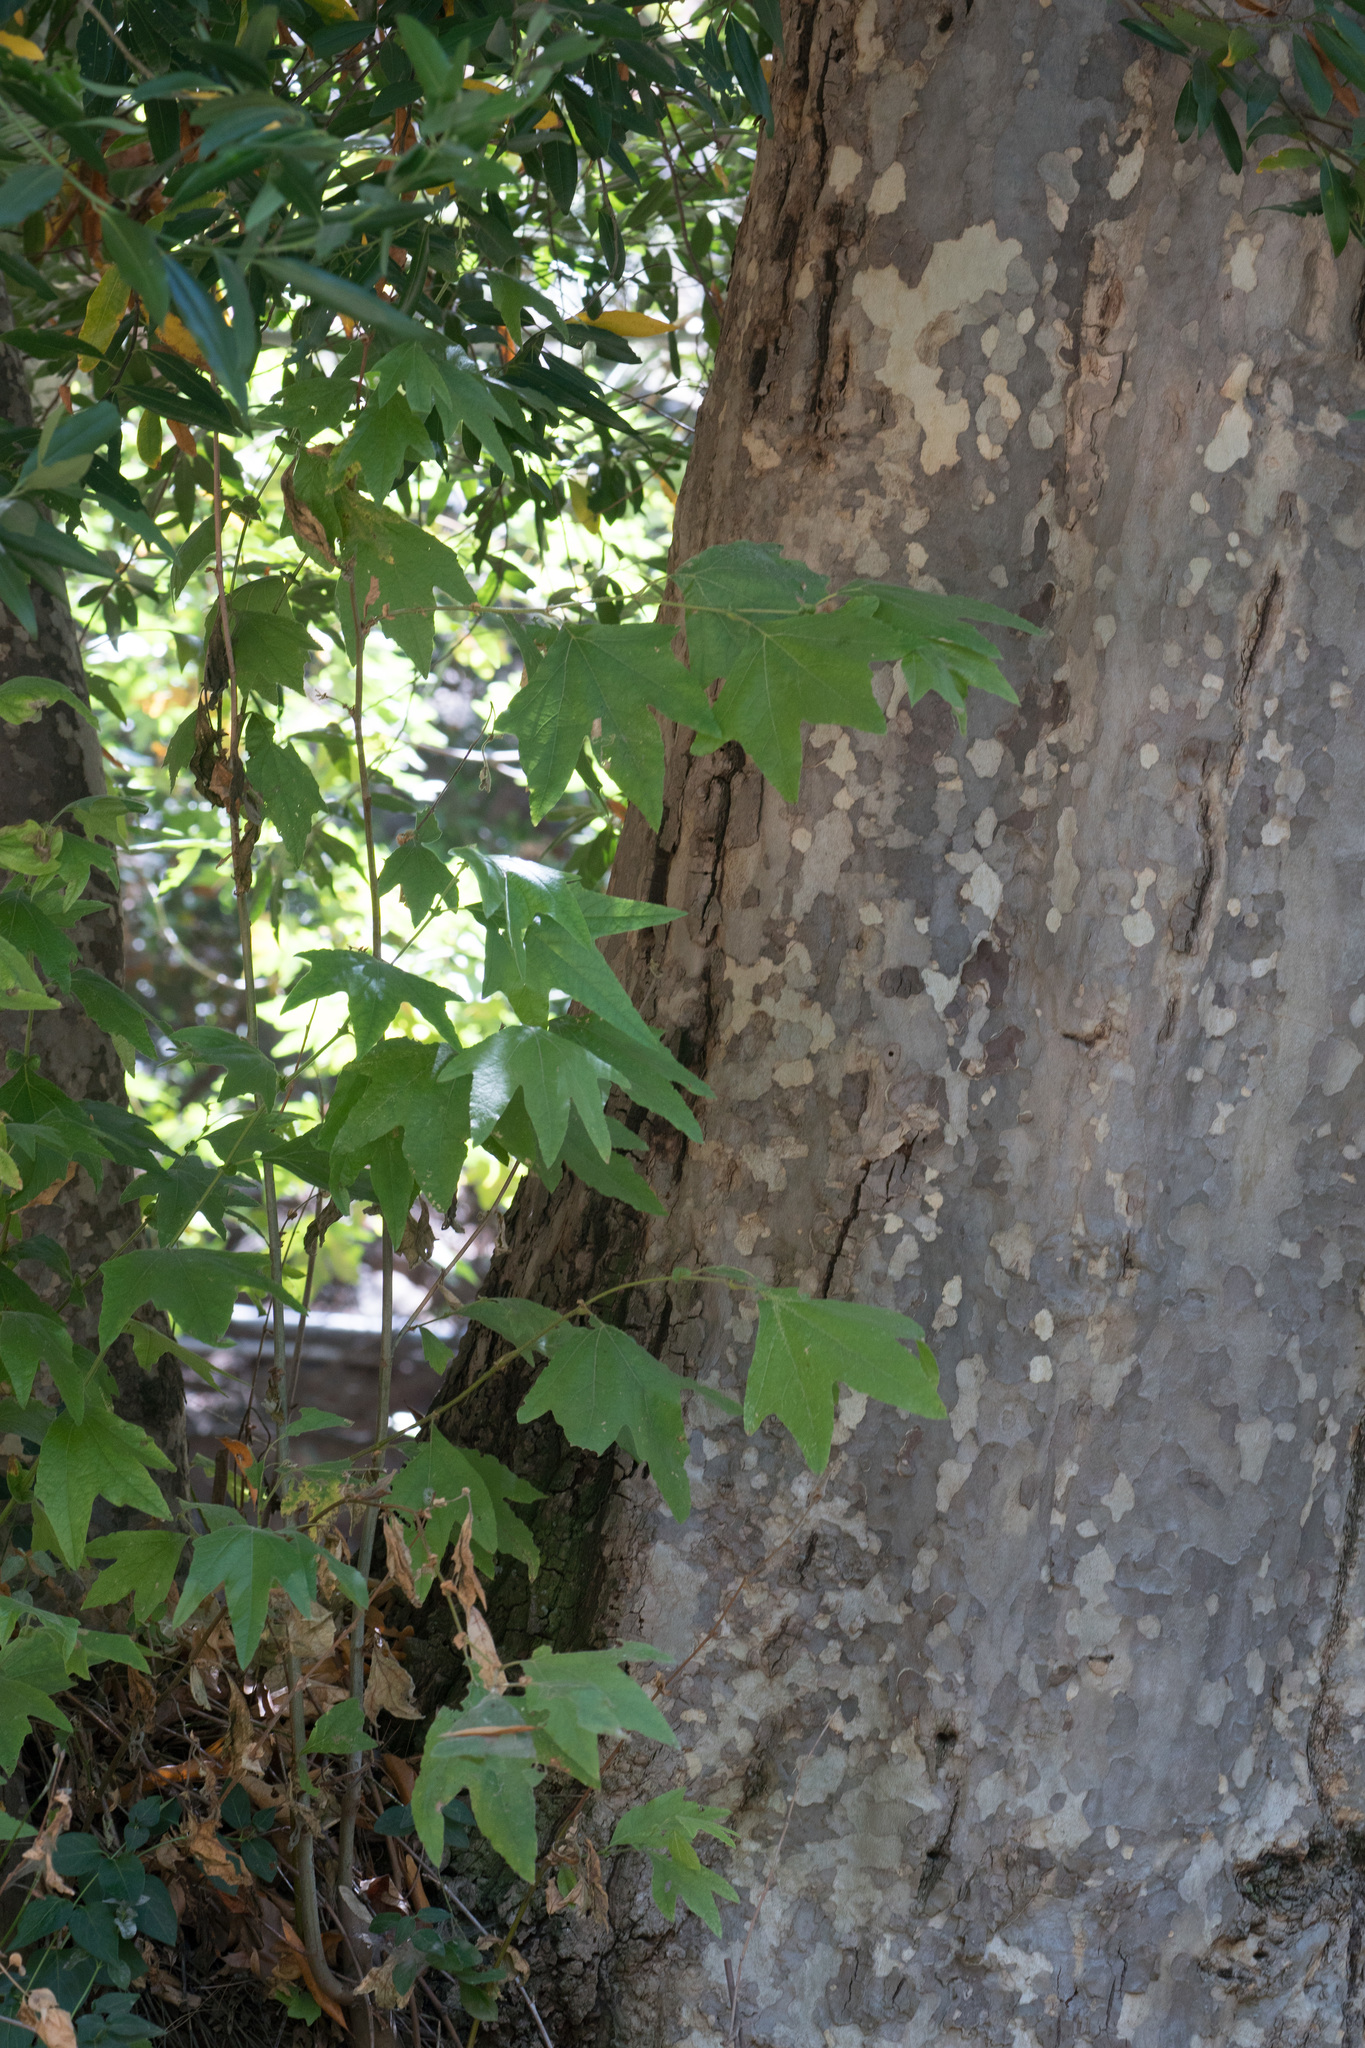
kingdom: Plantae
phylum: Tracheophyta
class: Magnoliopsida
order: Proteales
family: Platanaceae
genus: Platanus
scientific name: Platanus racemosa
